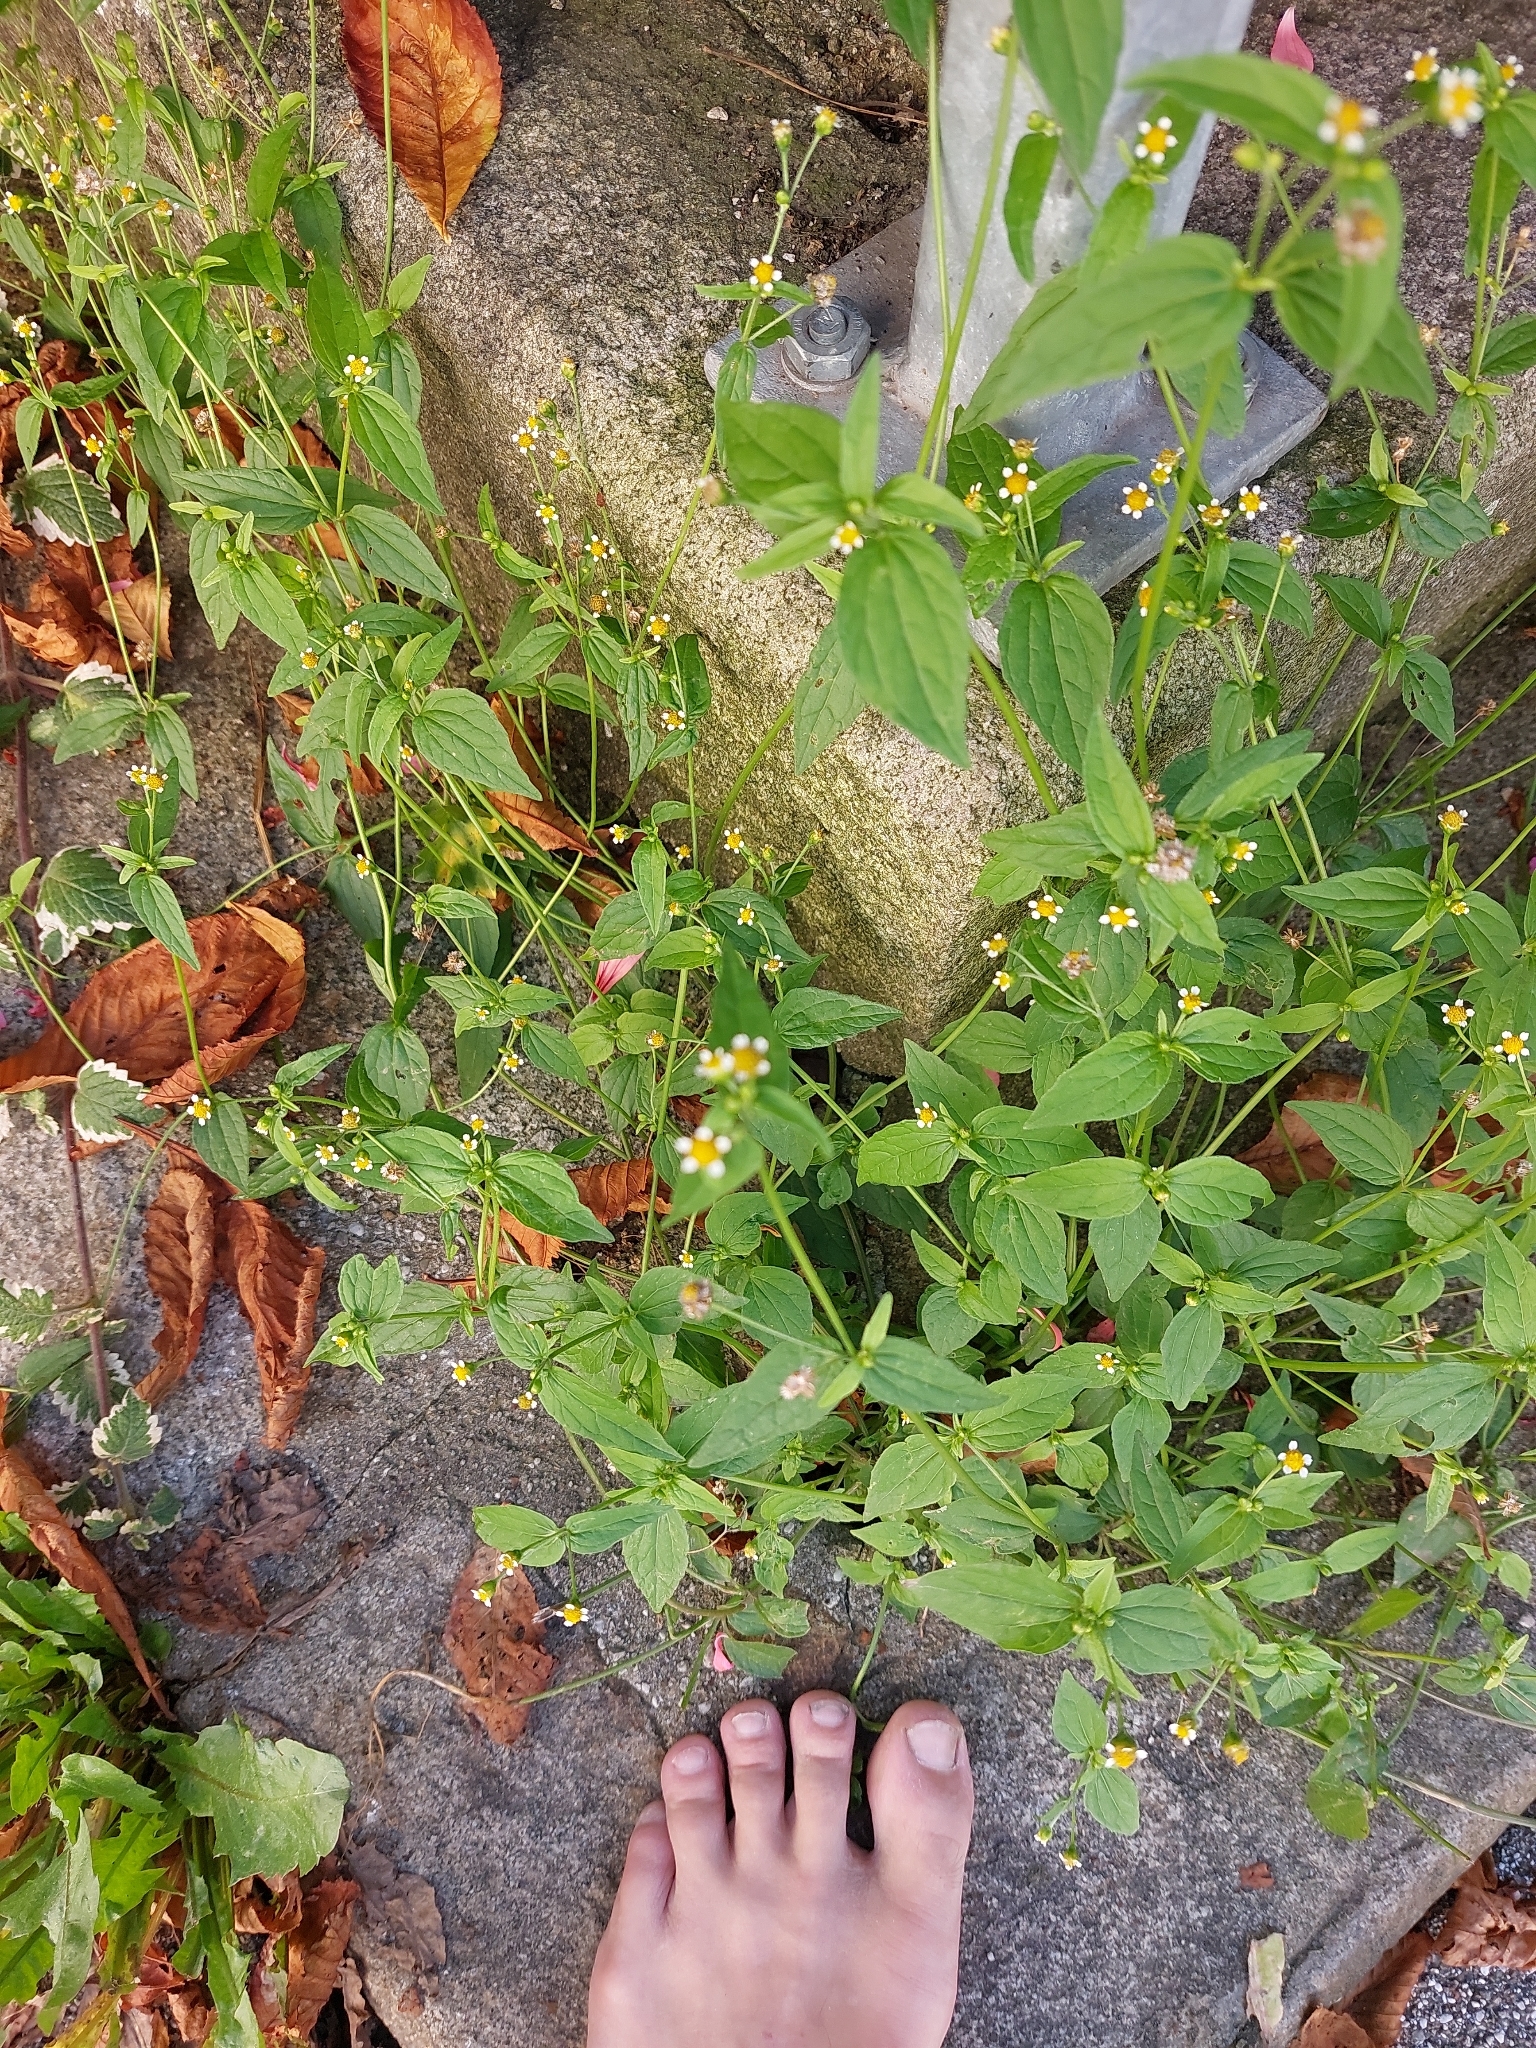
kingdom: Plantae
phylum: Tracheophyta
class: Magnoliopsida
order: Asterales
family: Asteraceae
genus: Galinsoga
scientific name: Galinsoga parviflora
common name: Gallant soldier
